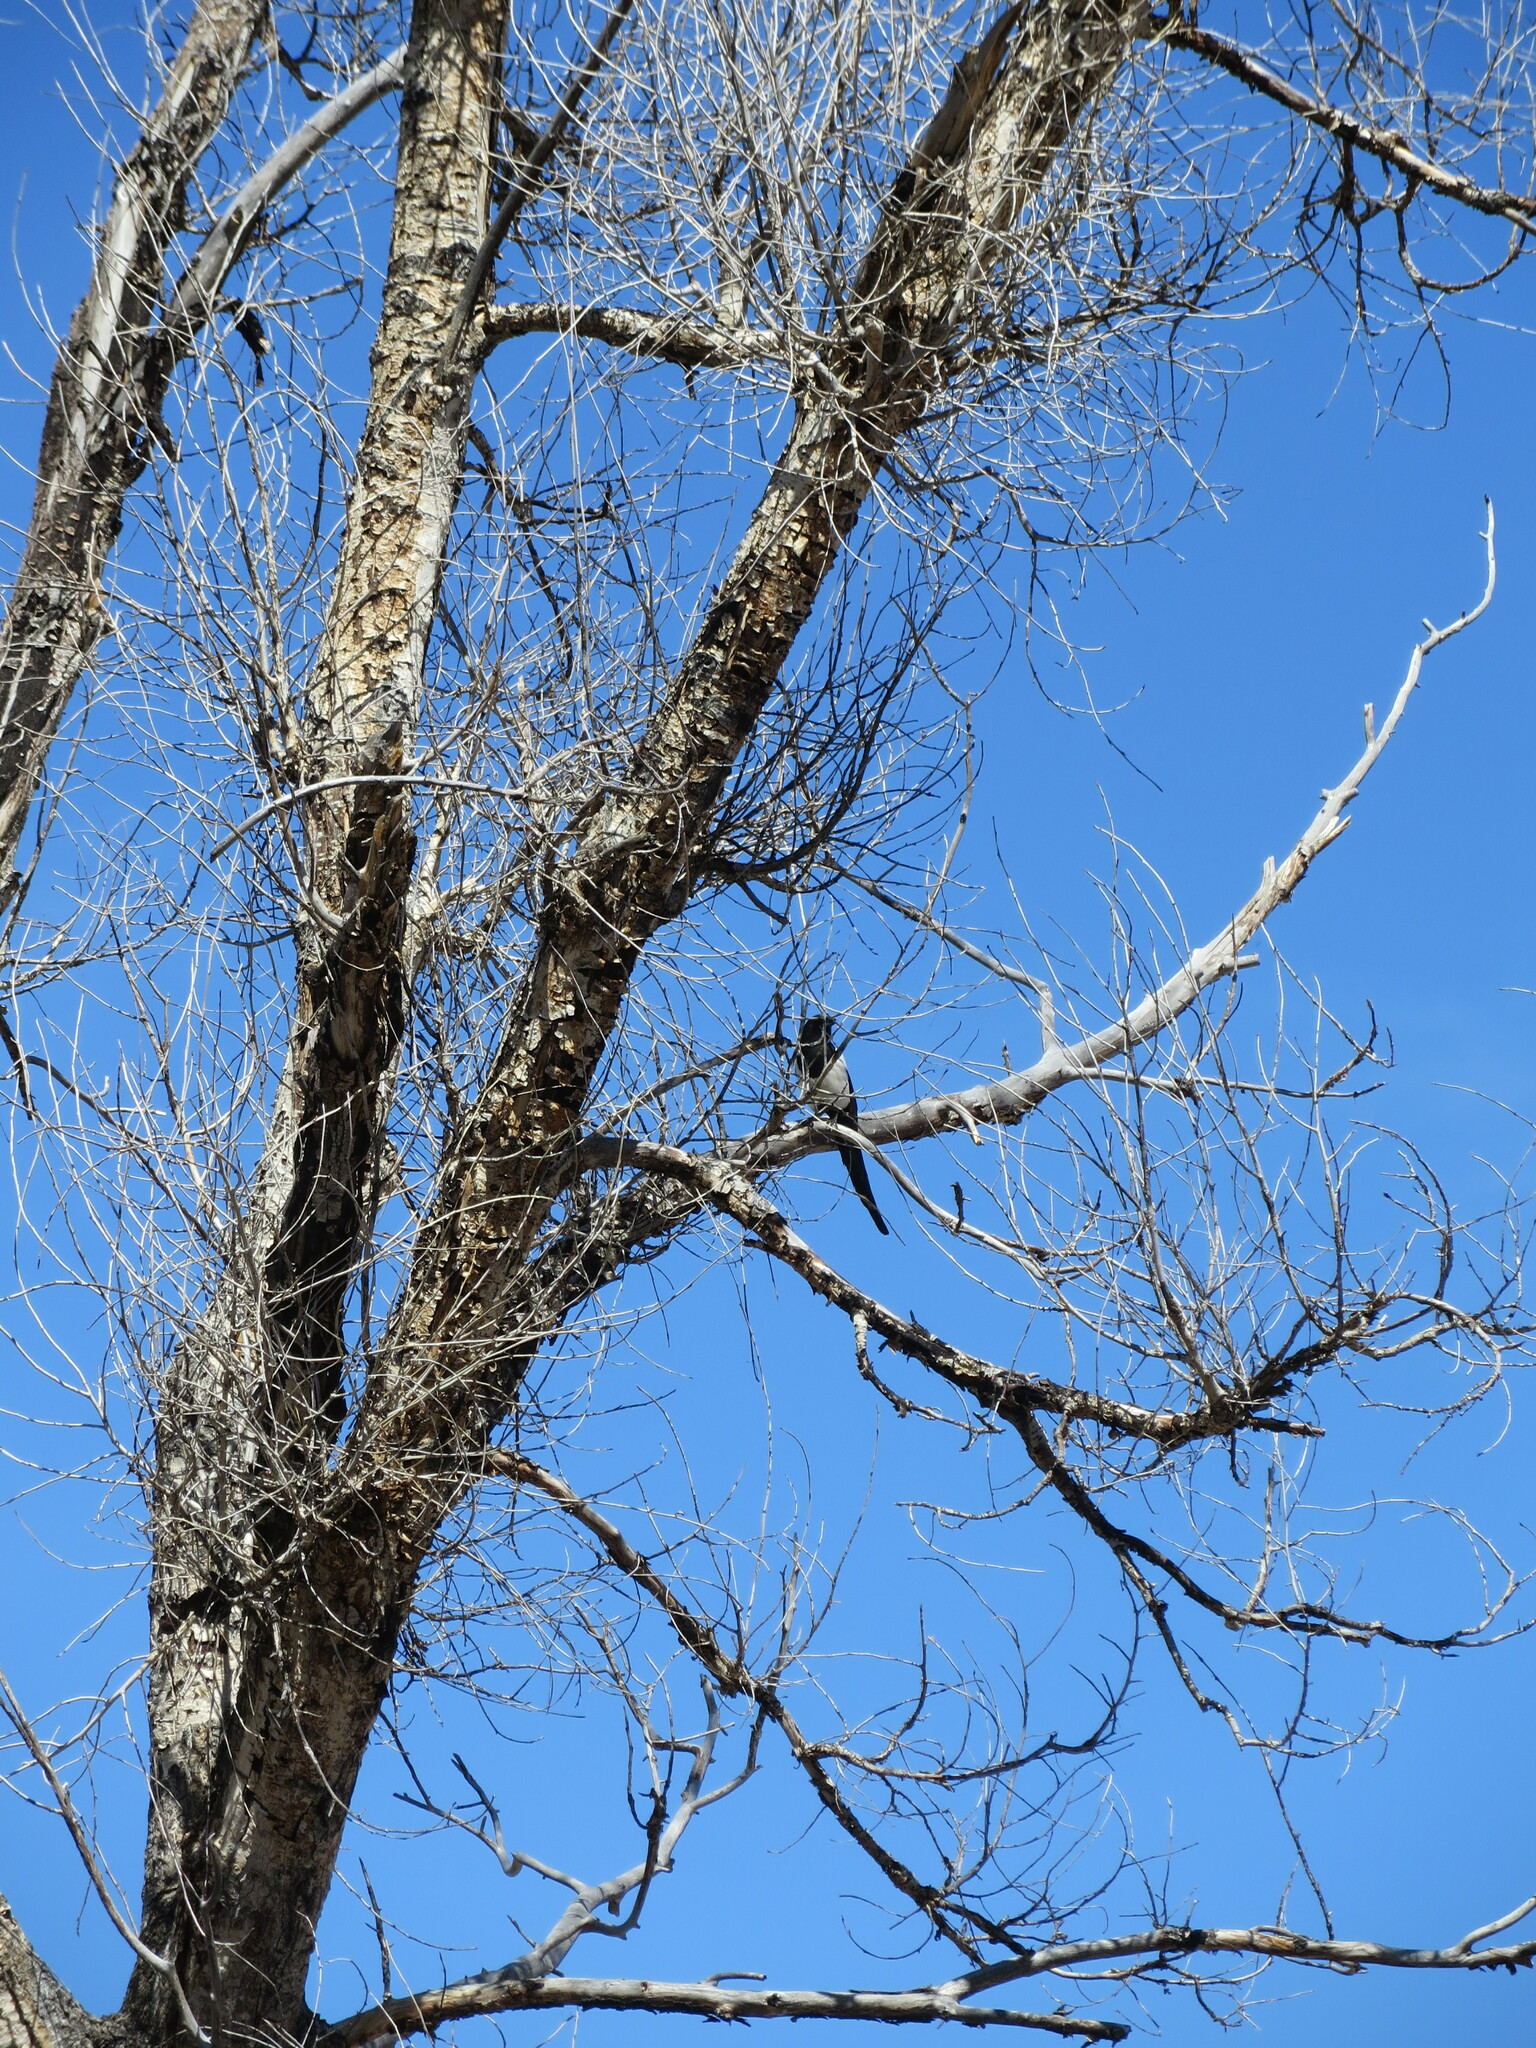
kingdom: Animalia
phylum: Chordata
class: Aves
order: Passeriformes
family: Corvidae
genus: Pica
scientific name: Pica hudsonia
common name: Black-billed magpie
